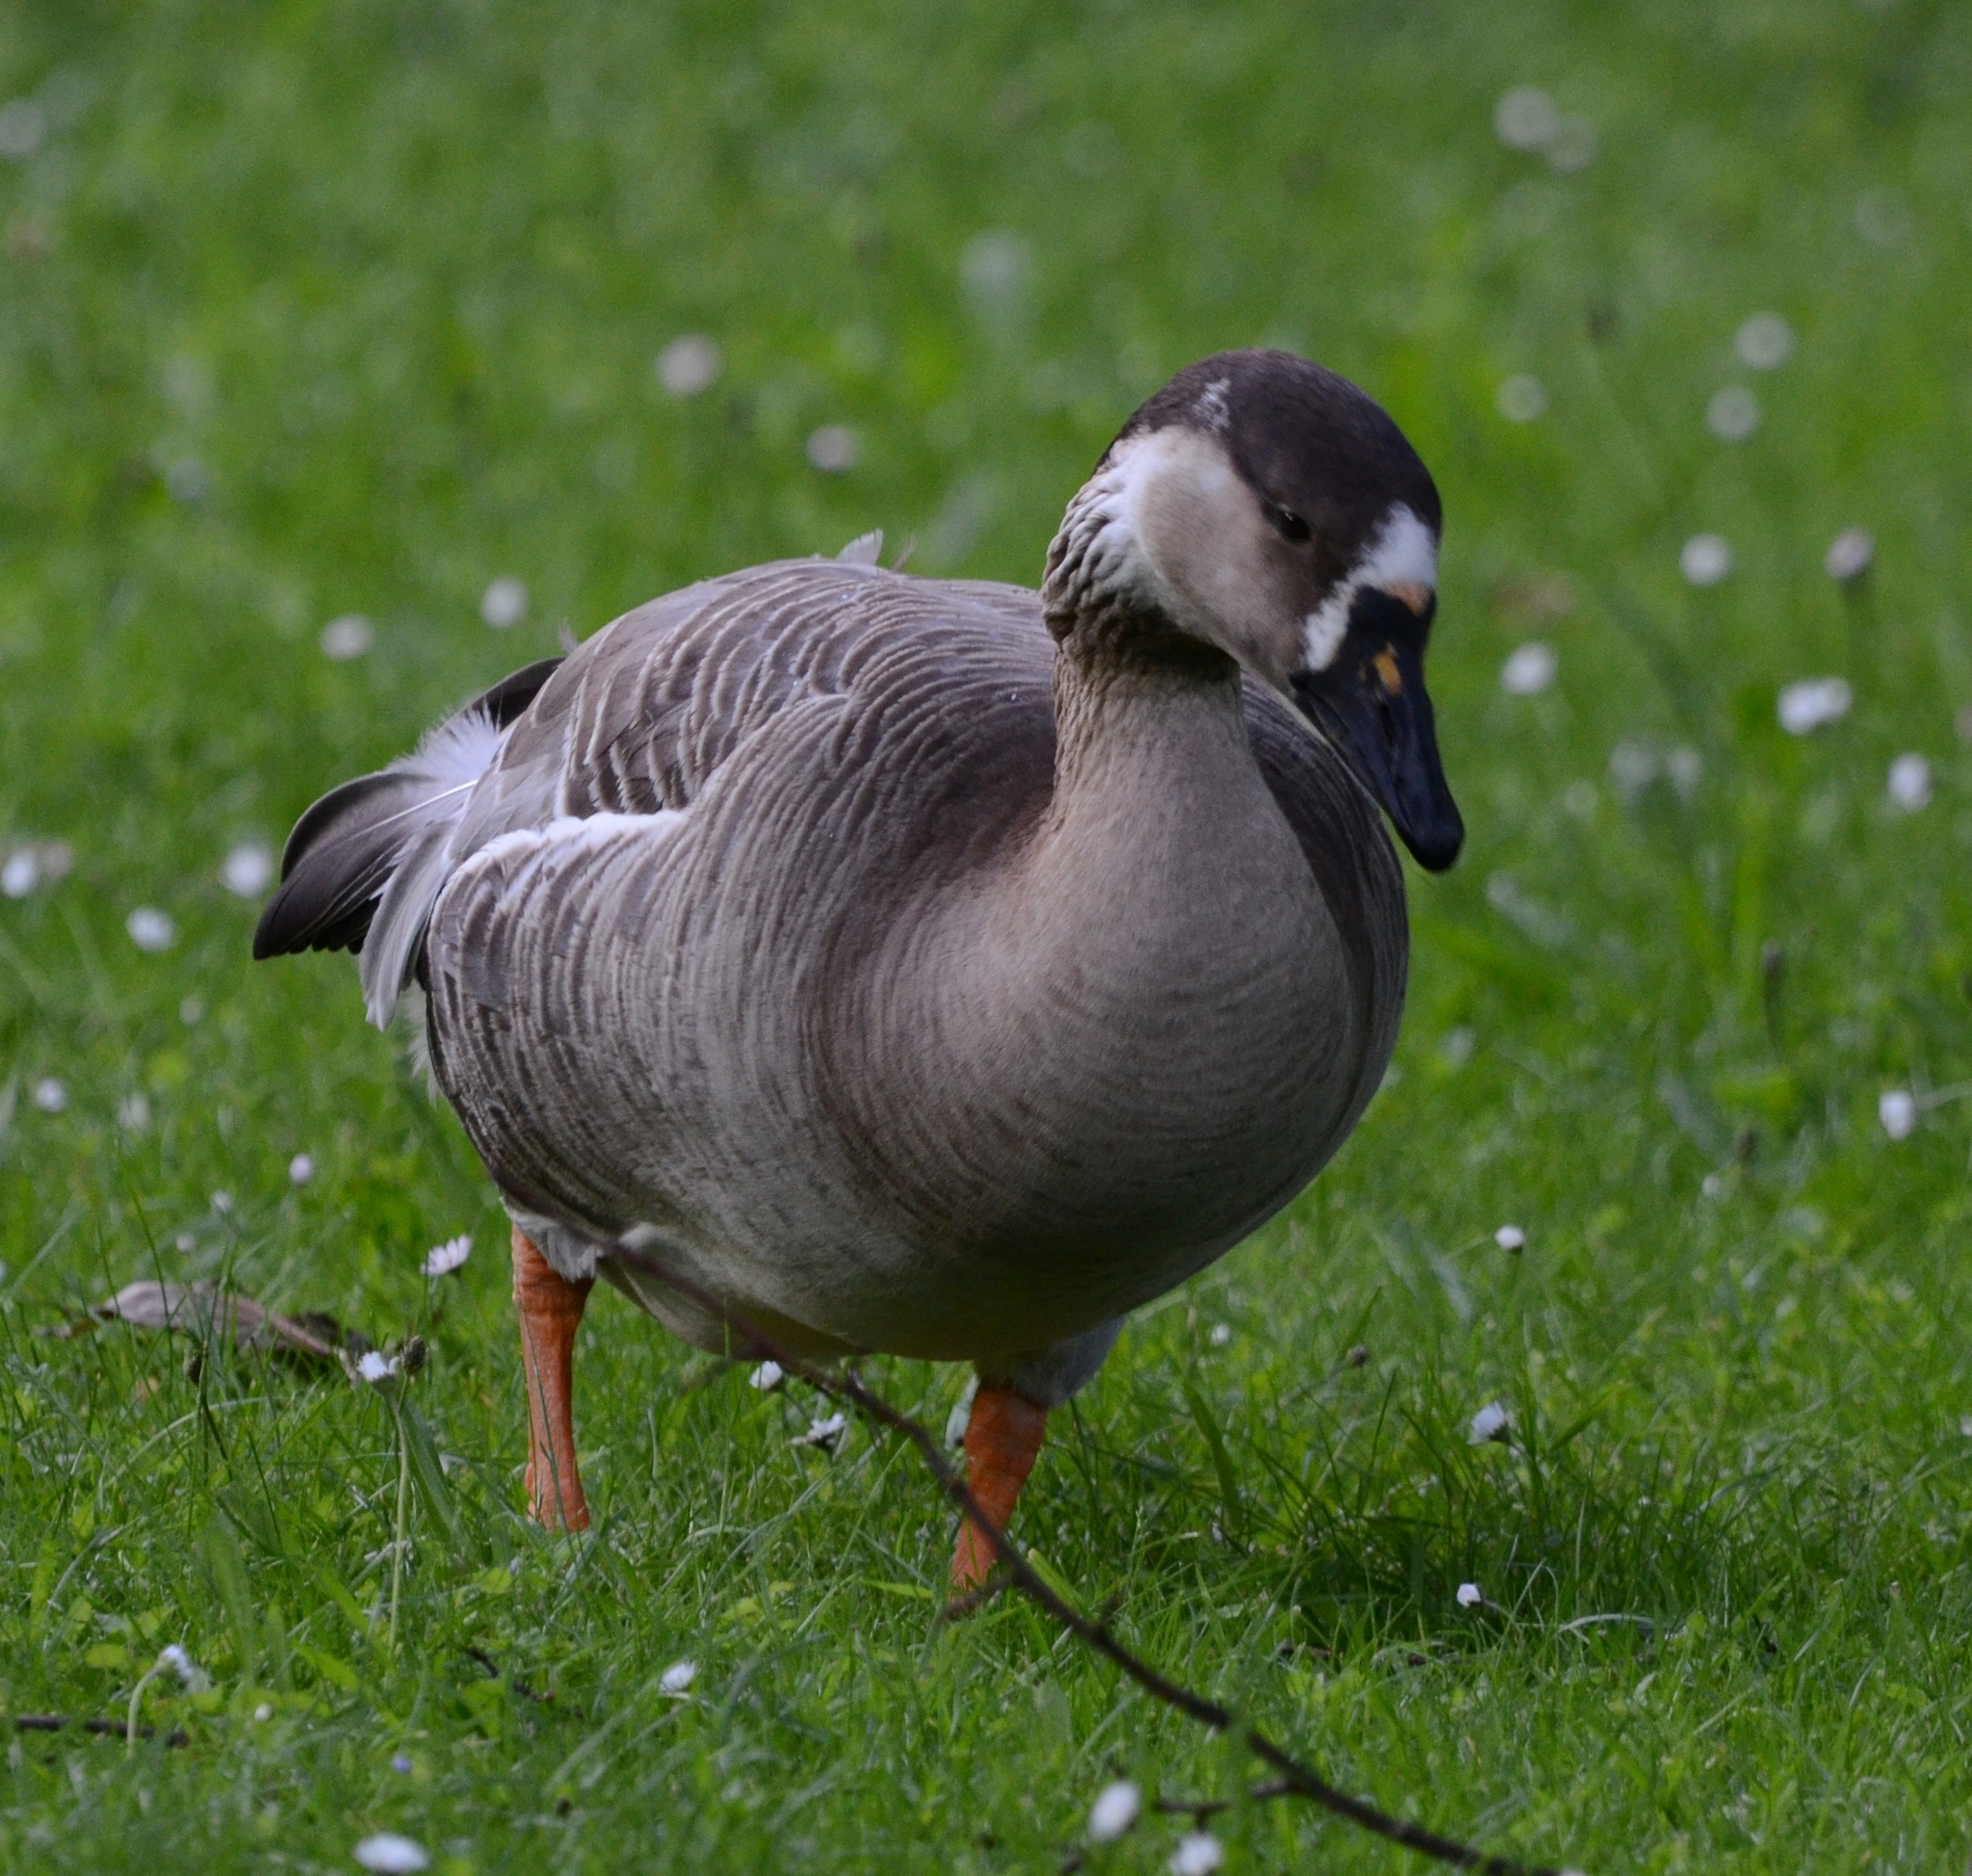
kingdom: Animalia
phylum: Chordata
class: Aves
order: Anseriformes
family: Anatidae
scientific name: Anatidae
